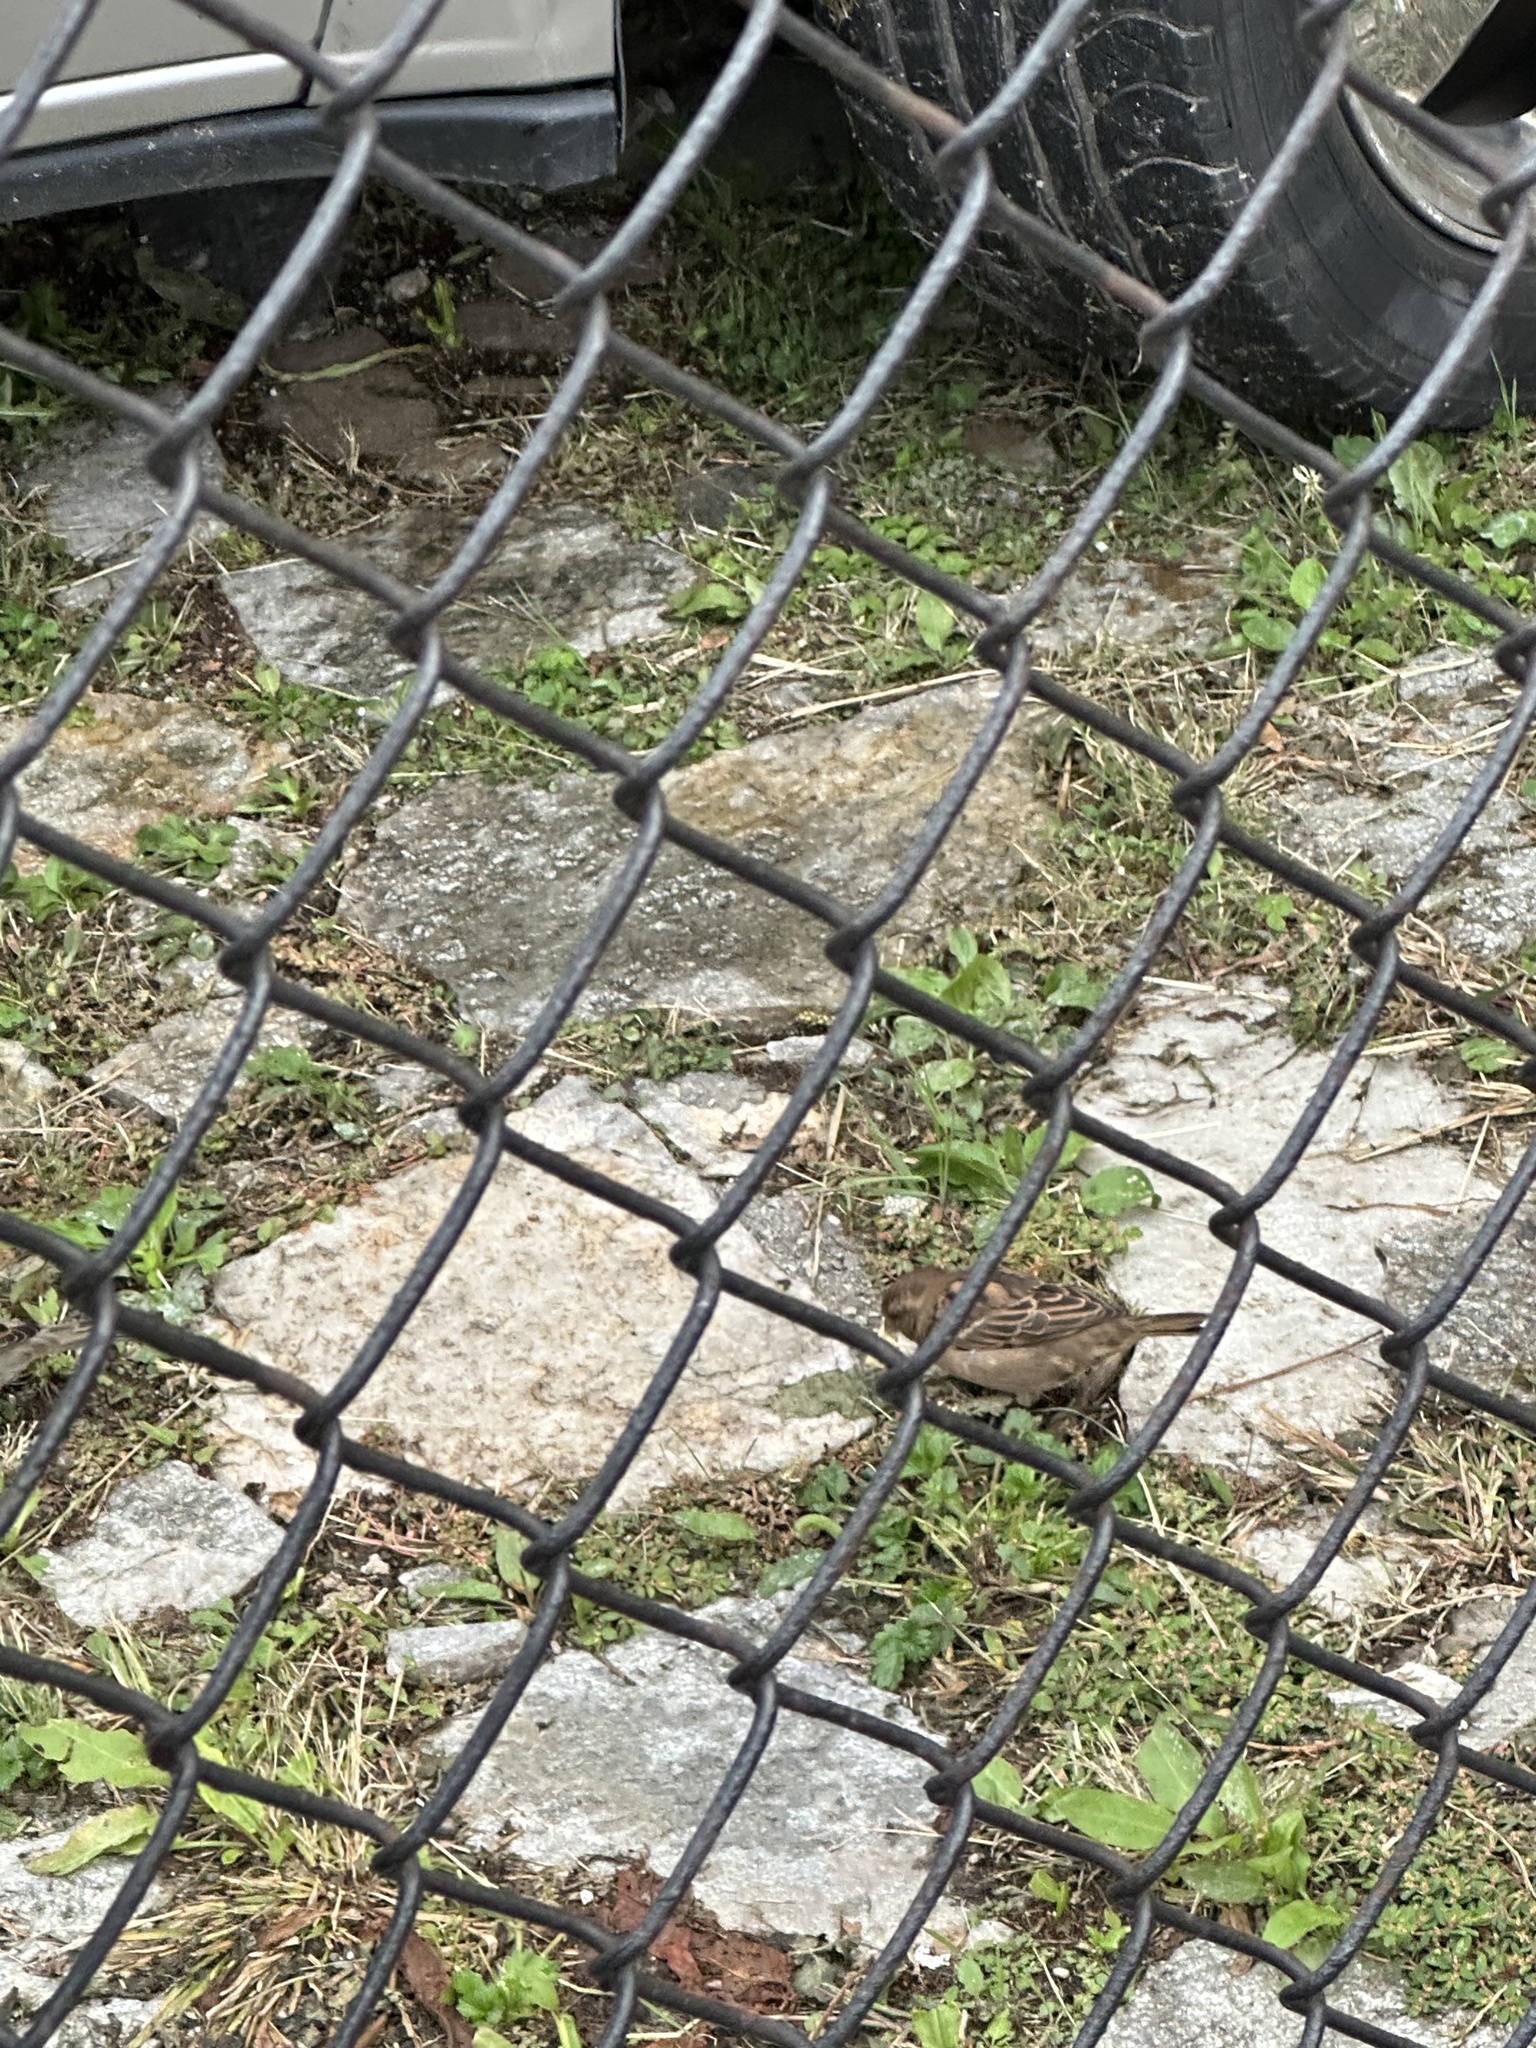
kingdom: Animalia
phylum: Chordata
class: Aves
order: Passeriformes
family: Passeridae
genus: Passer
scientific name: Passer domesticus
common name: House sparrow
